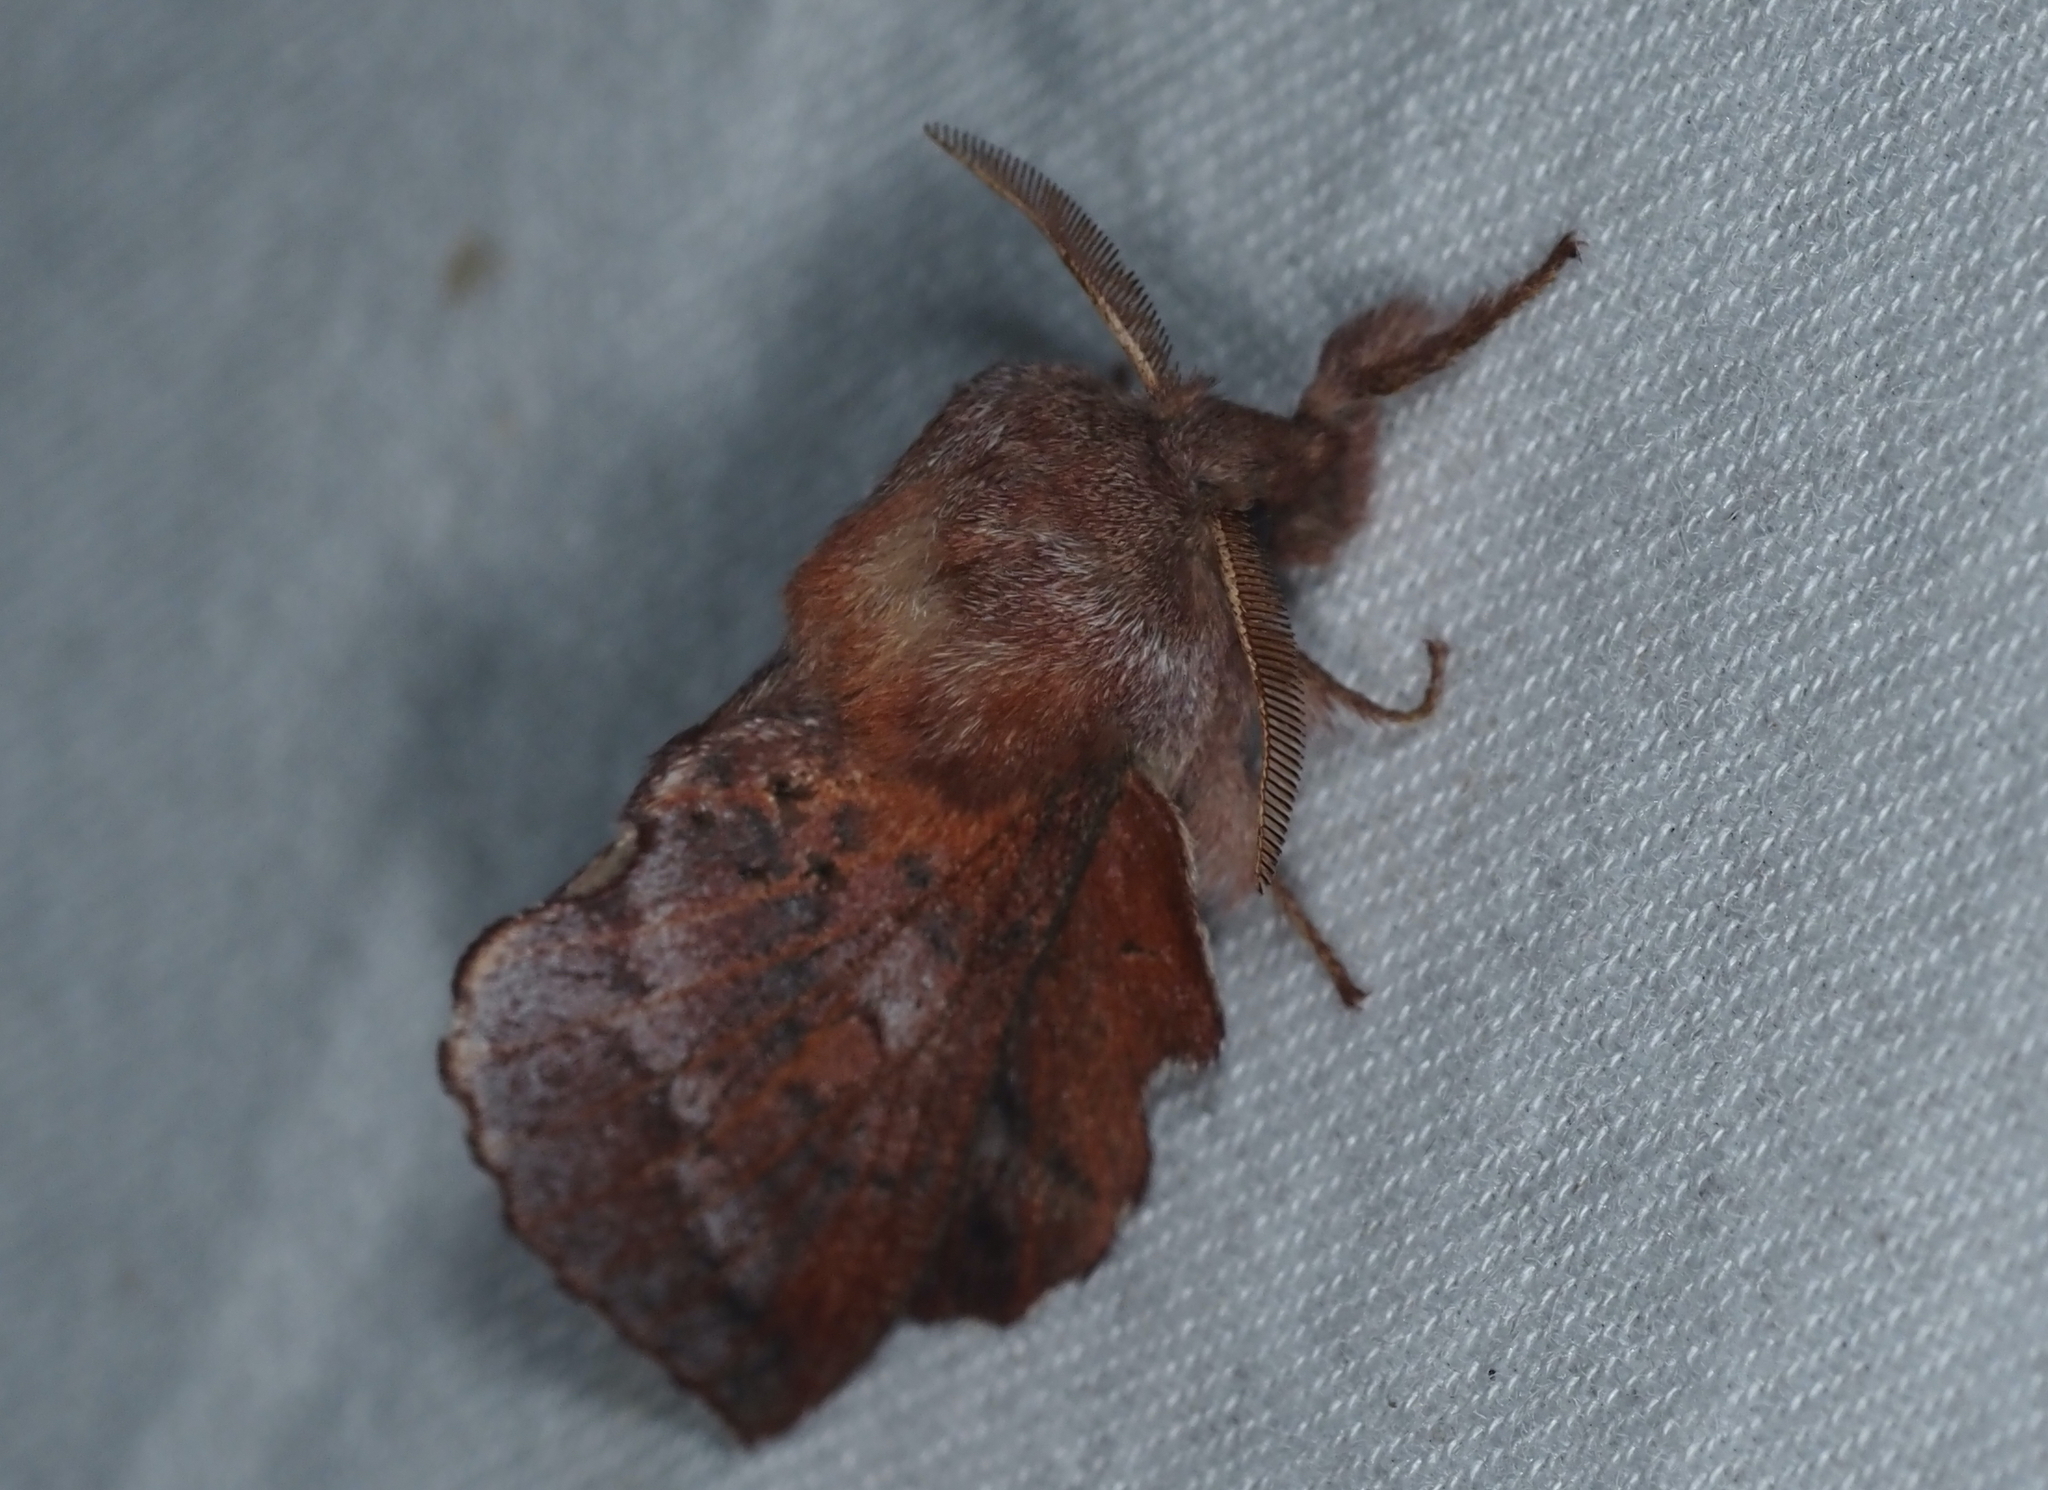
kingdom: Animalia
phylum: Arthropoda
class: Insecta
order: Lepidoptera
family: Lasiocampidae
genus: Phyllodesma
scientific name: Phyllodesma americana
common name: American lappet moth
